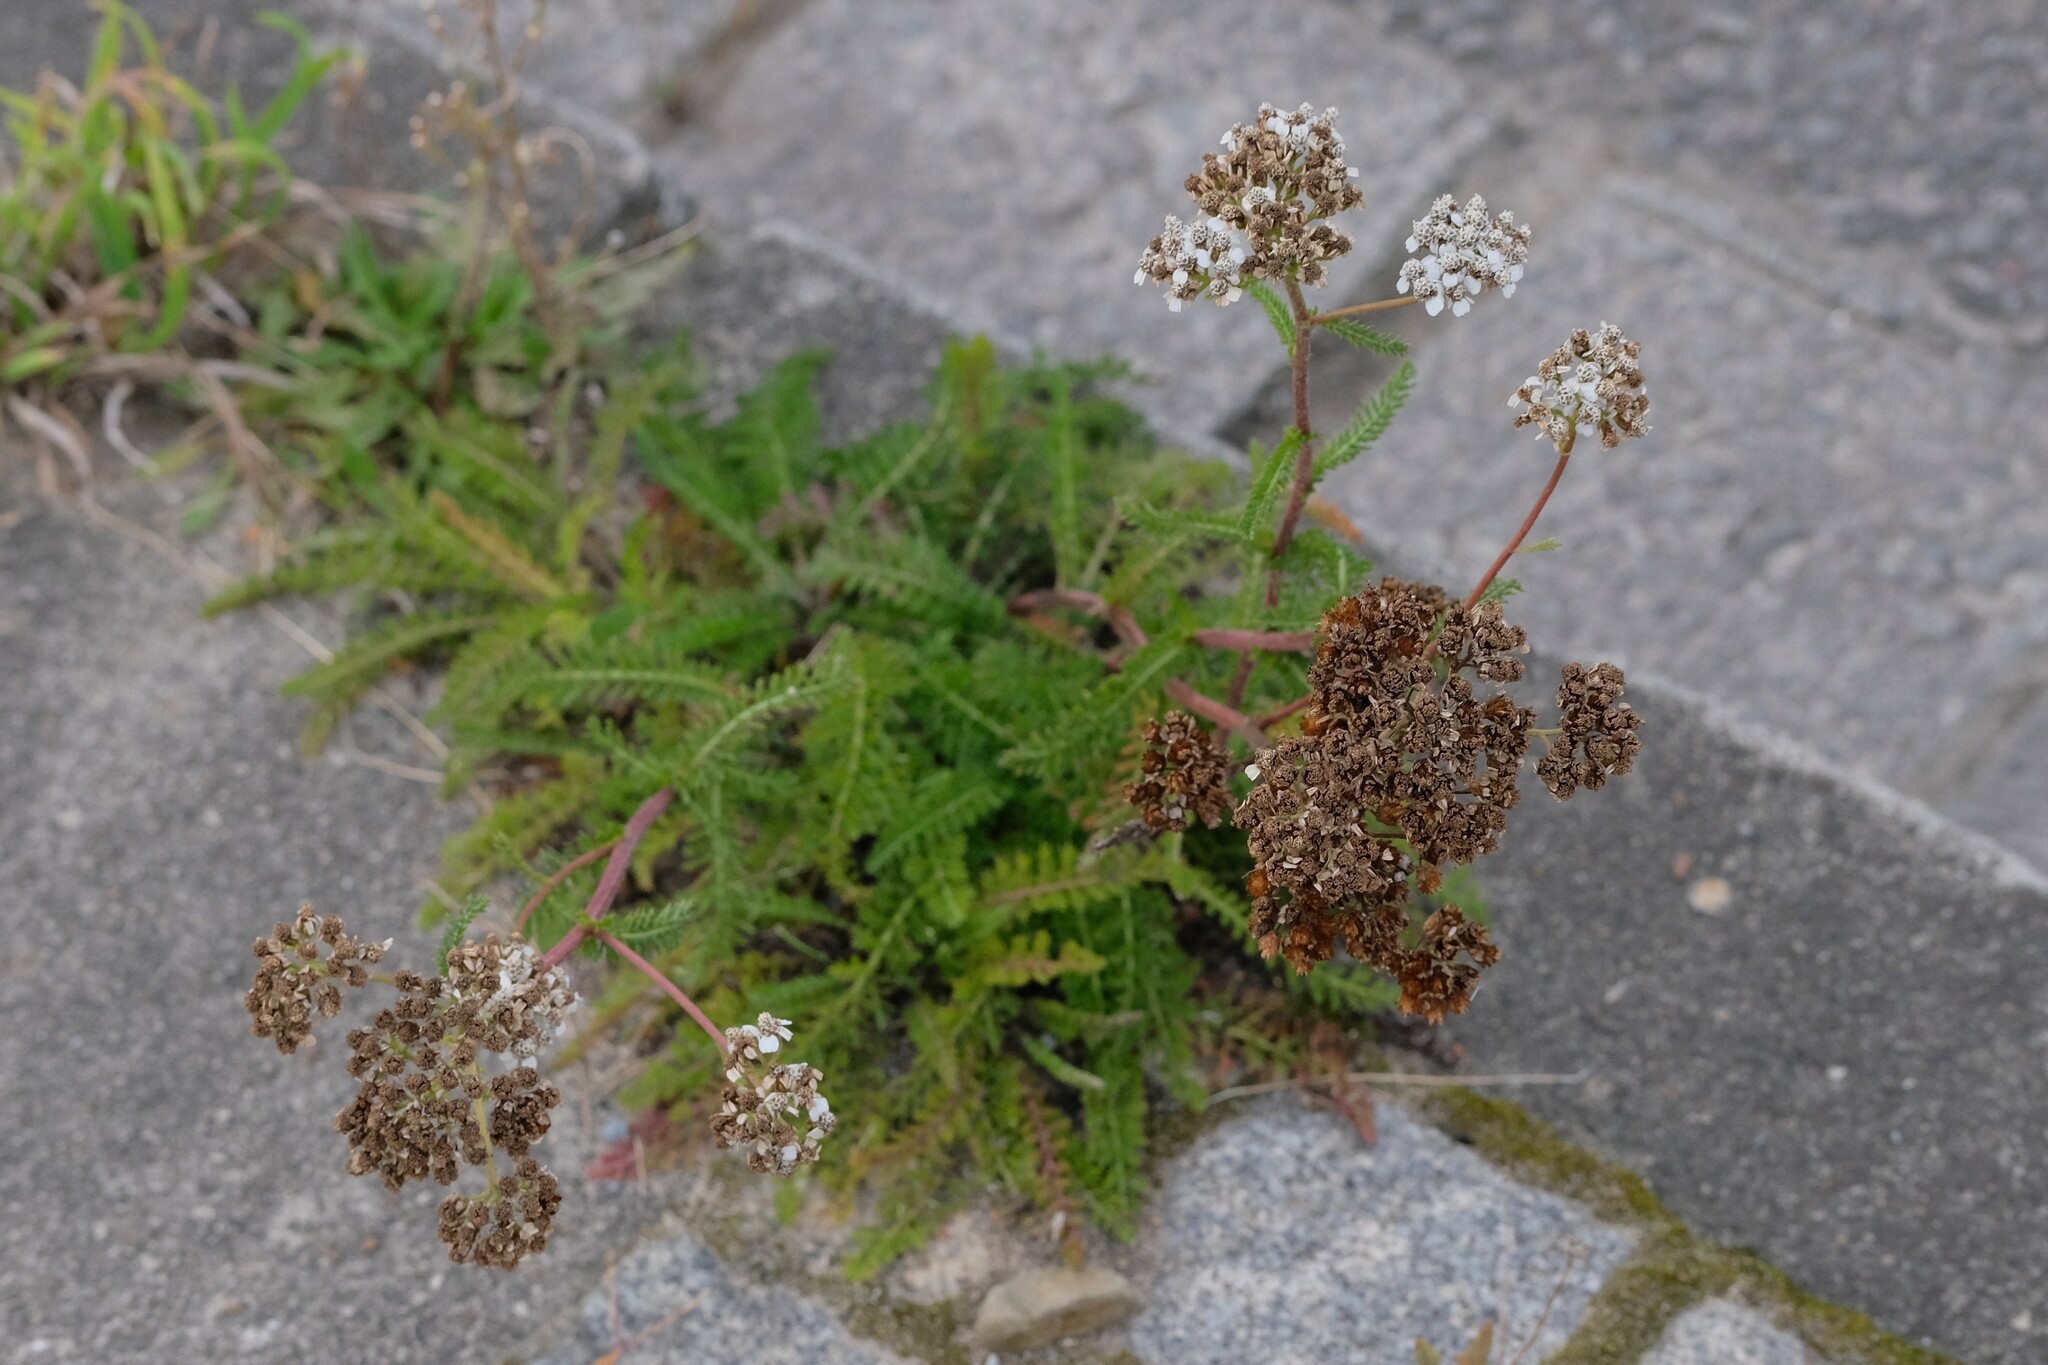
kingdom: Plantae
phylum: Tracheophyta
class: Magnoliopsida
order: Asterales
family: Asteraceae
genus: Achillea
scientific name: Achillea millefolium
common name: Yarrow
